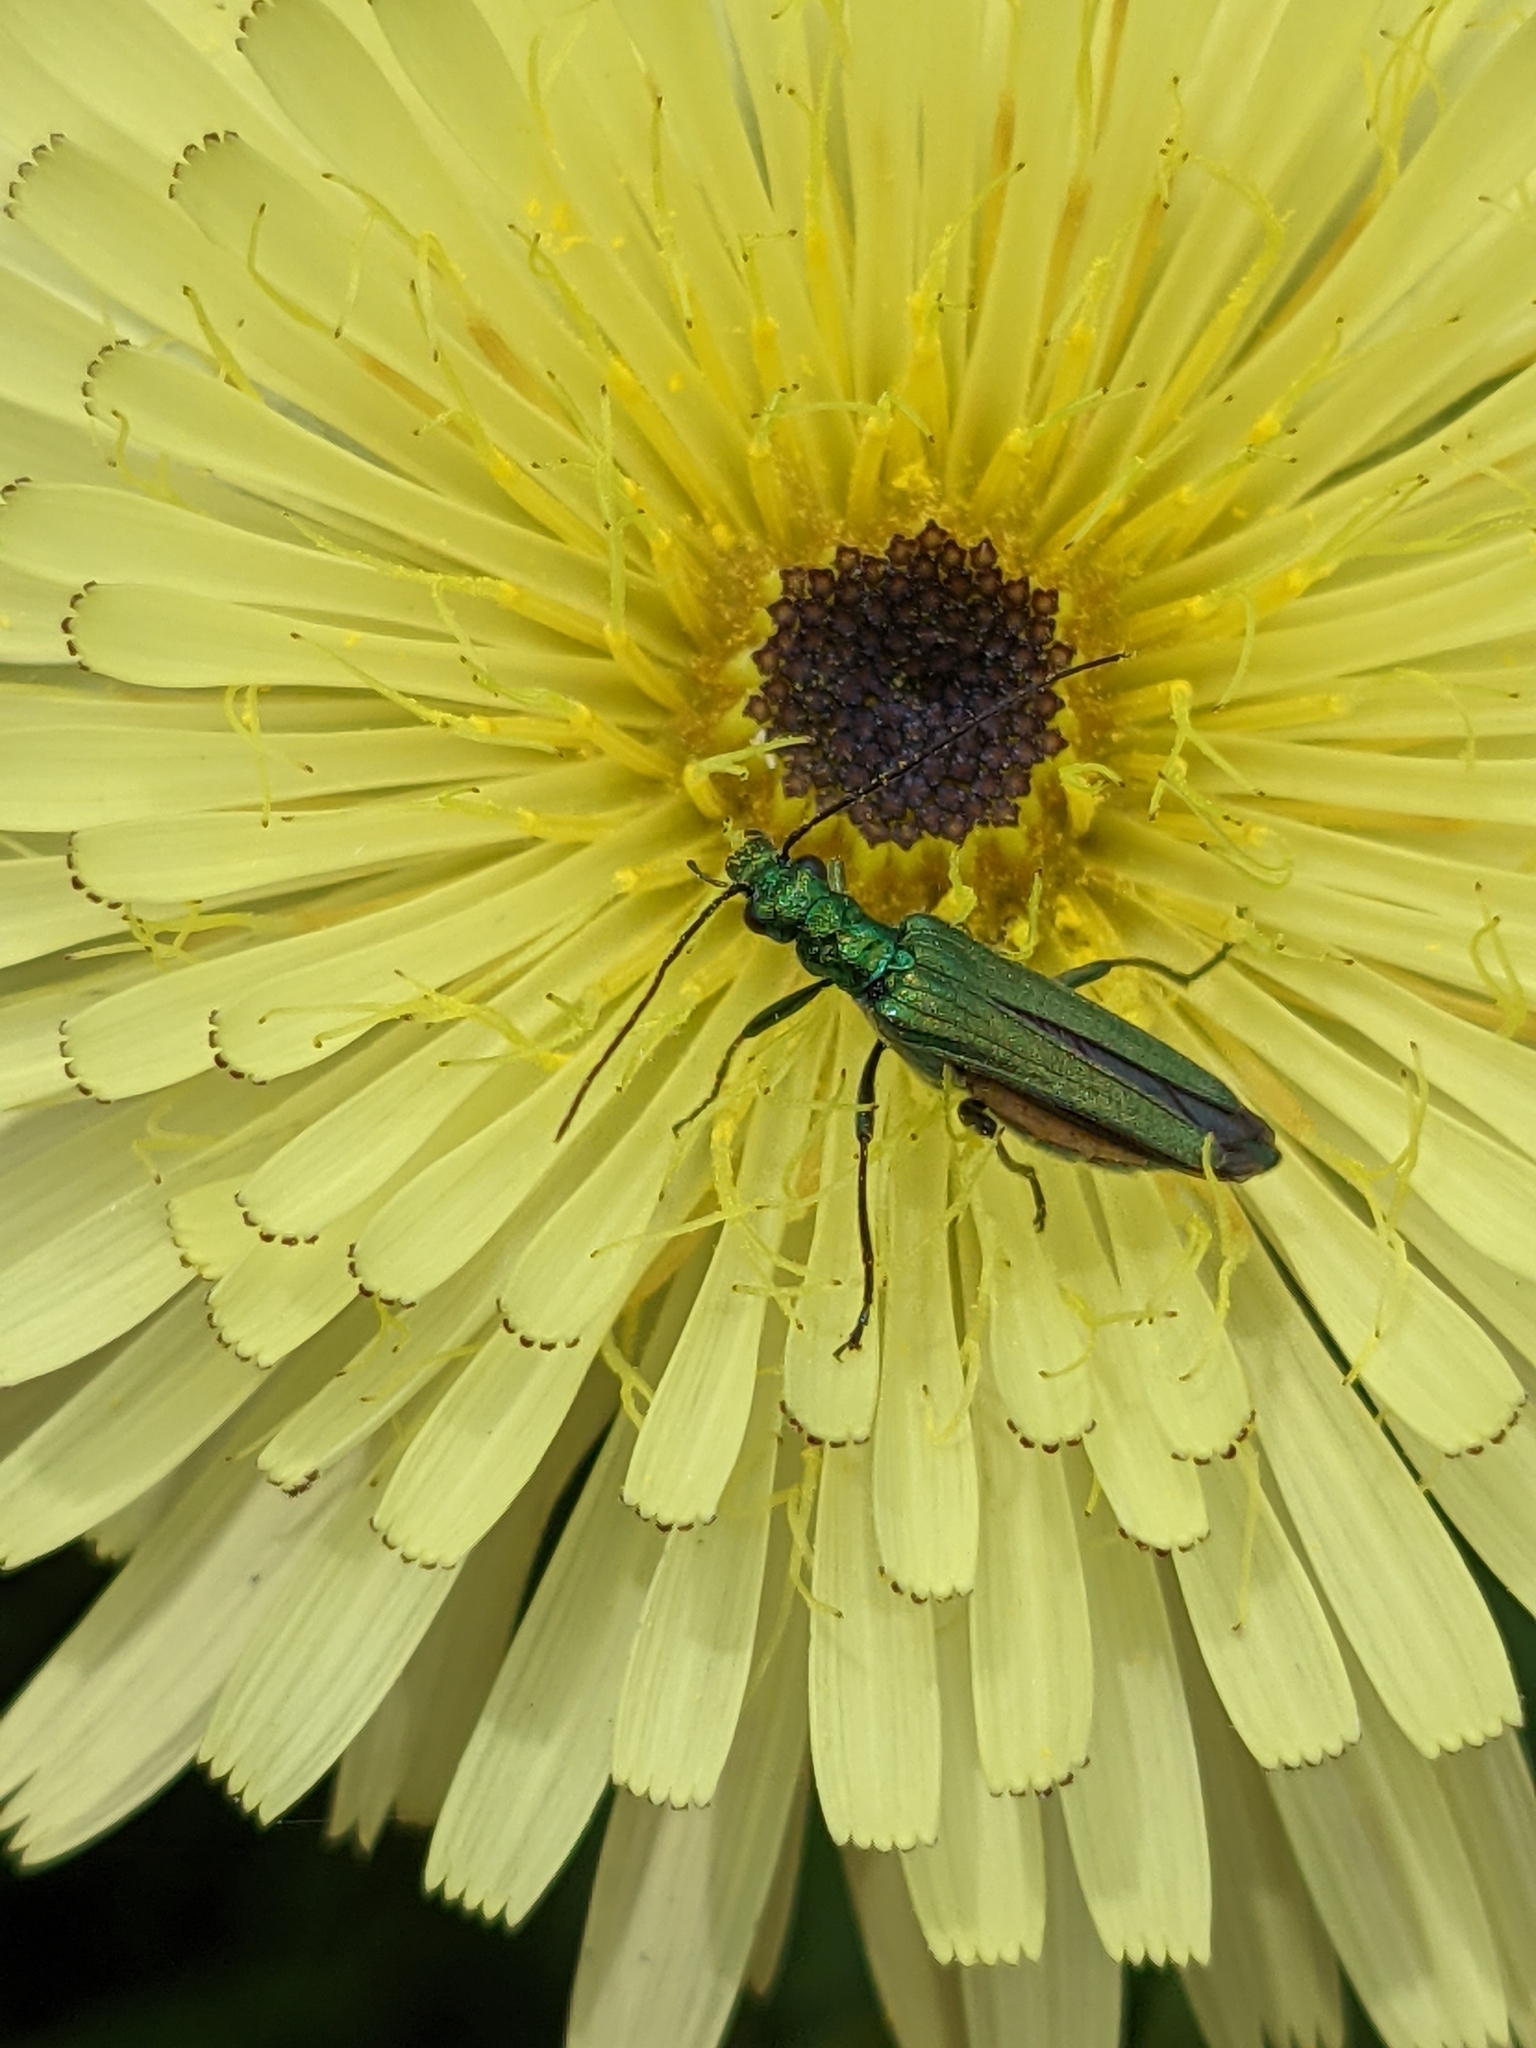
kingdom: Animalia
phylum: Arthropoda
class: Insecta
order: Coleoptera
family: Oedemeridae
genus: Oedemera
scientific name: Oedemera nobilis
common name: Swollen-thighed beetle
